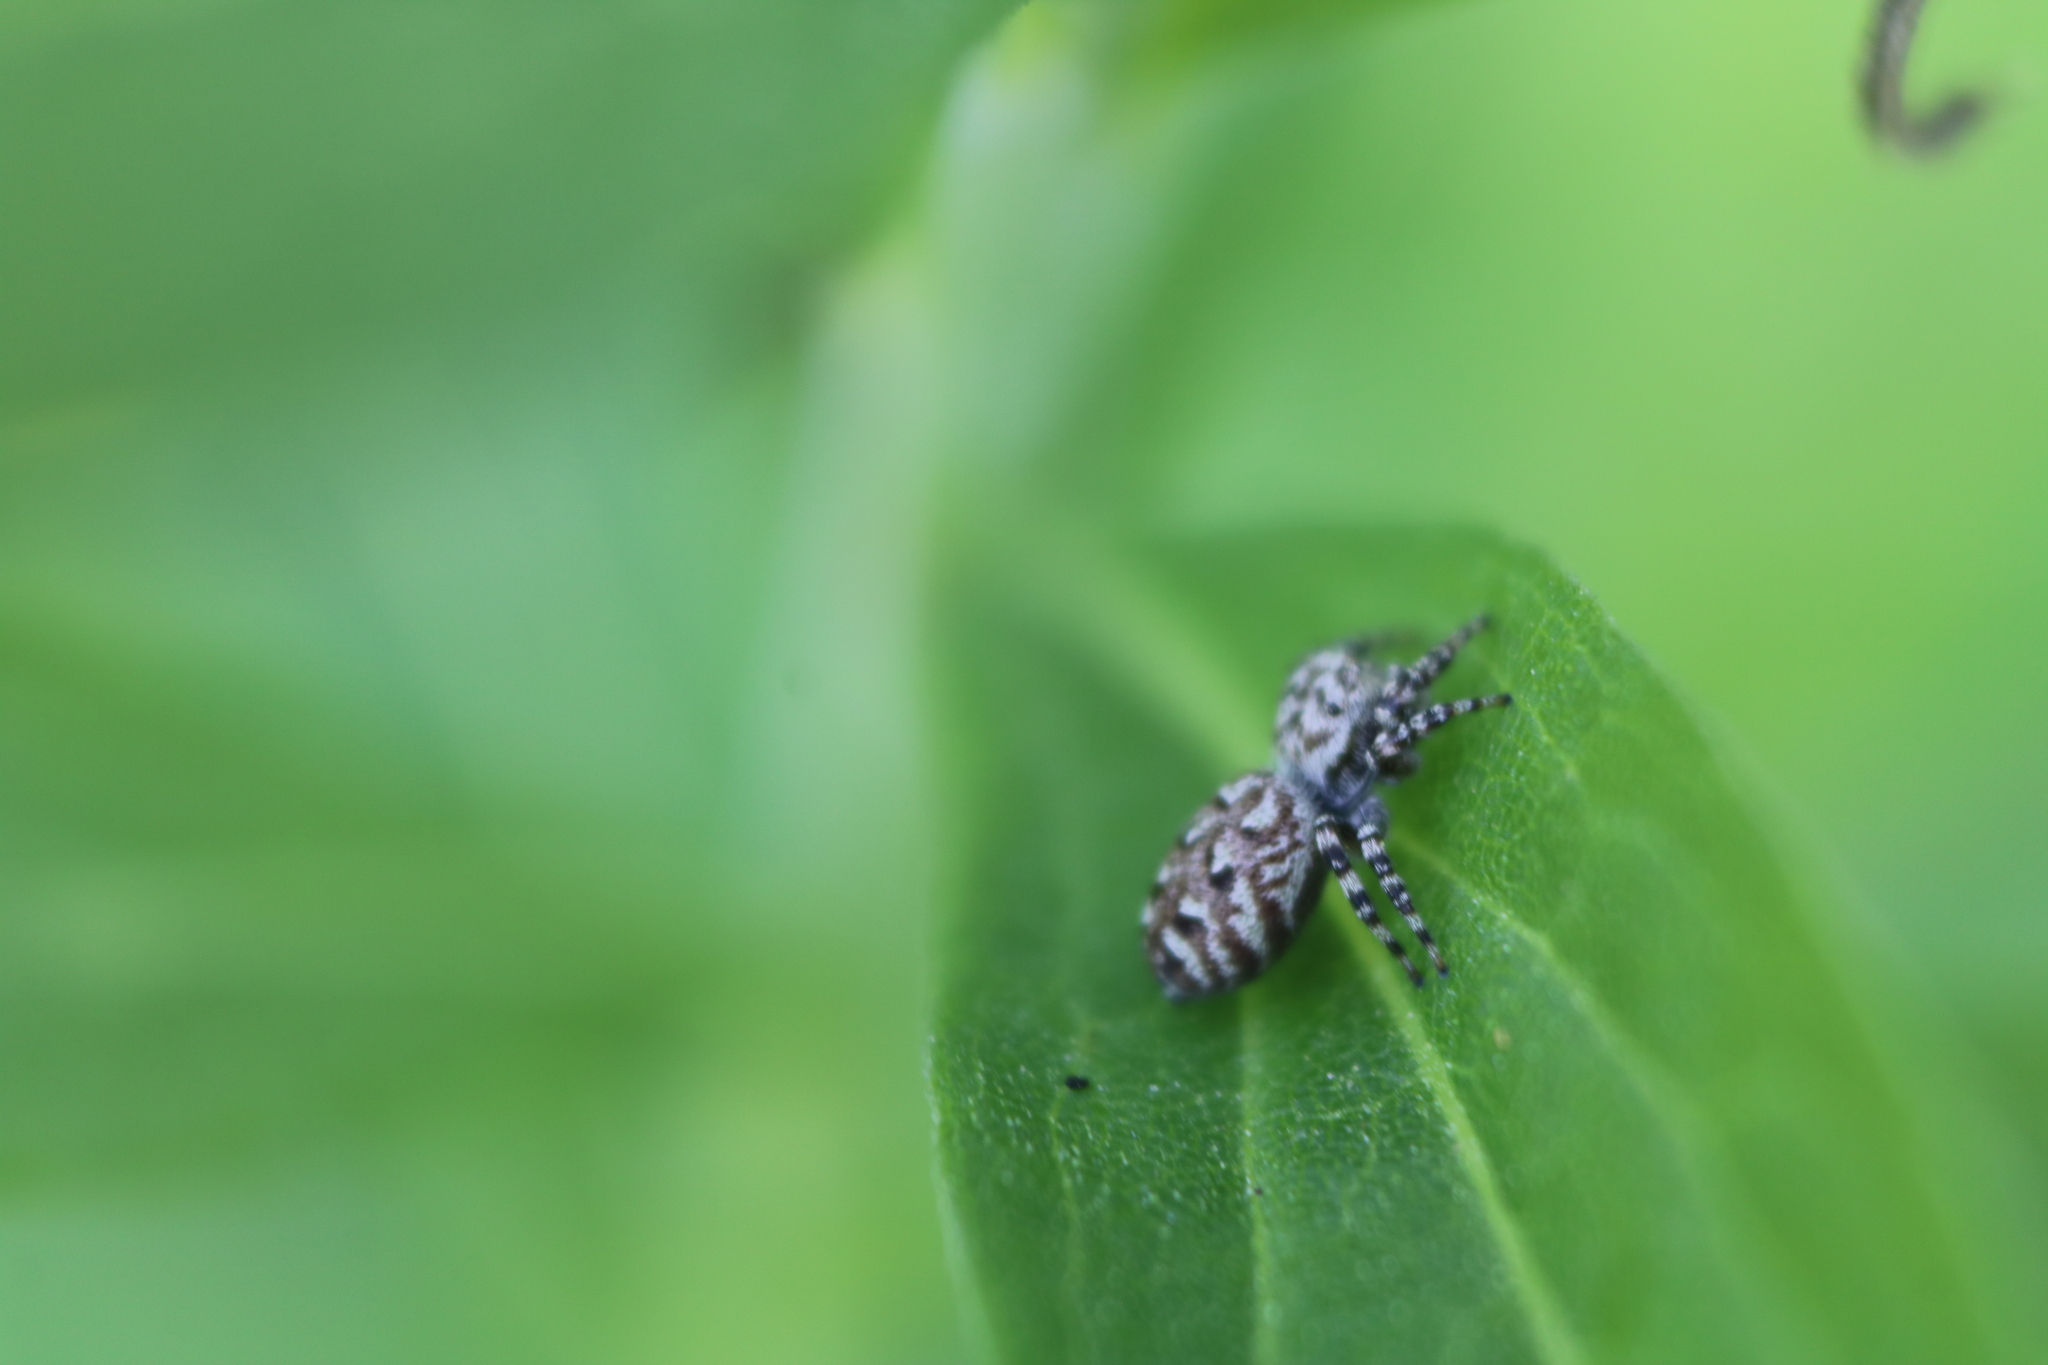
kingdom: Animalia
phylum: Arthropoda
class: Arachnida
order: Araneae
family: Salticidae
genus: Pelegrina
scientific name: Pelegrina galathea
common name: Jumping spiders
